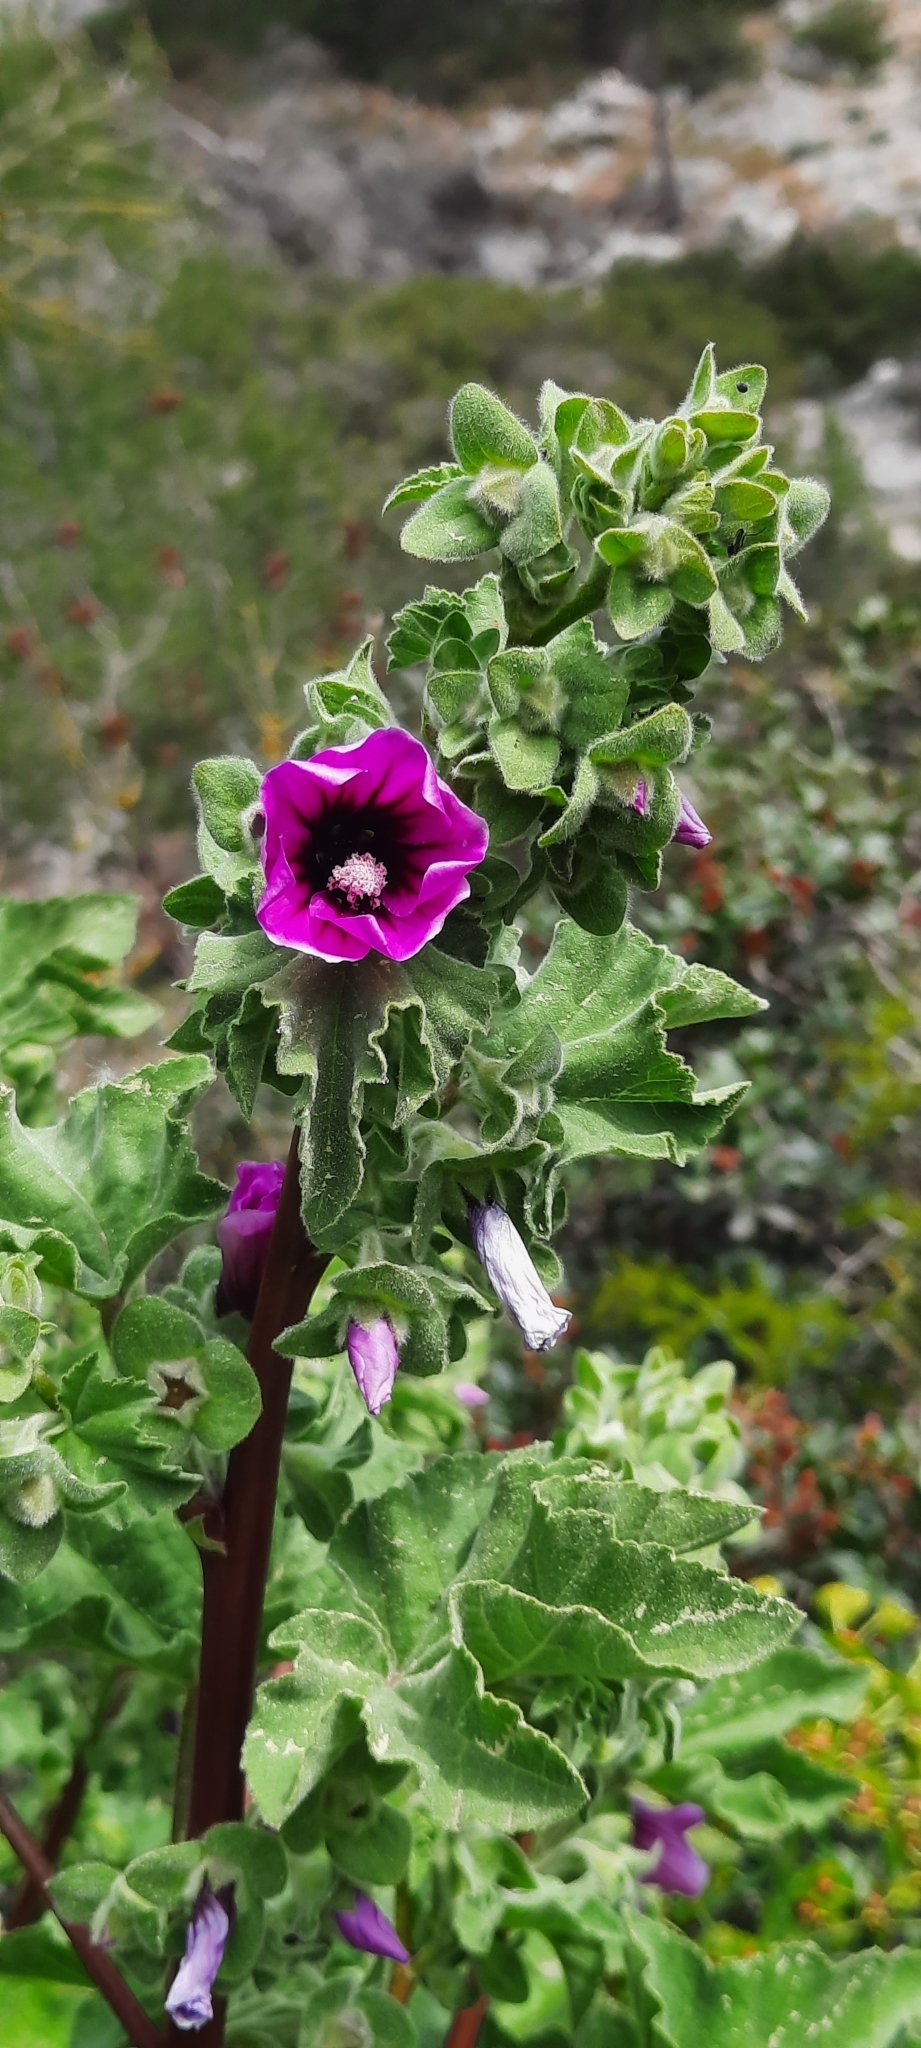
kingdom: Plantae
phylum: Tracheophyta
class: Magnoliopsida
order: Malvales
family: Malvaceae
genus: Malva
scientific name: Malva arborea
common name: Tree mallow
